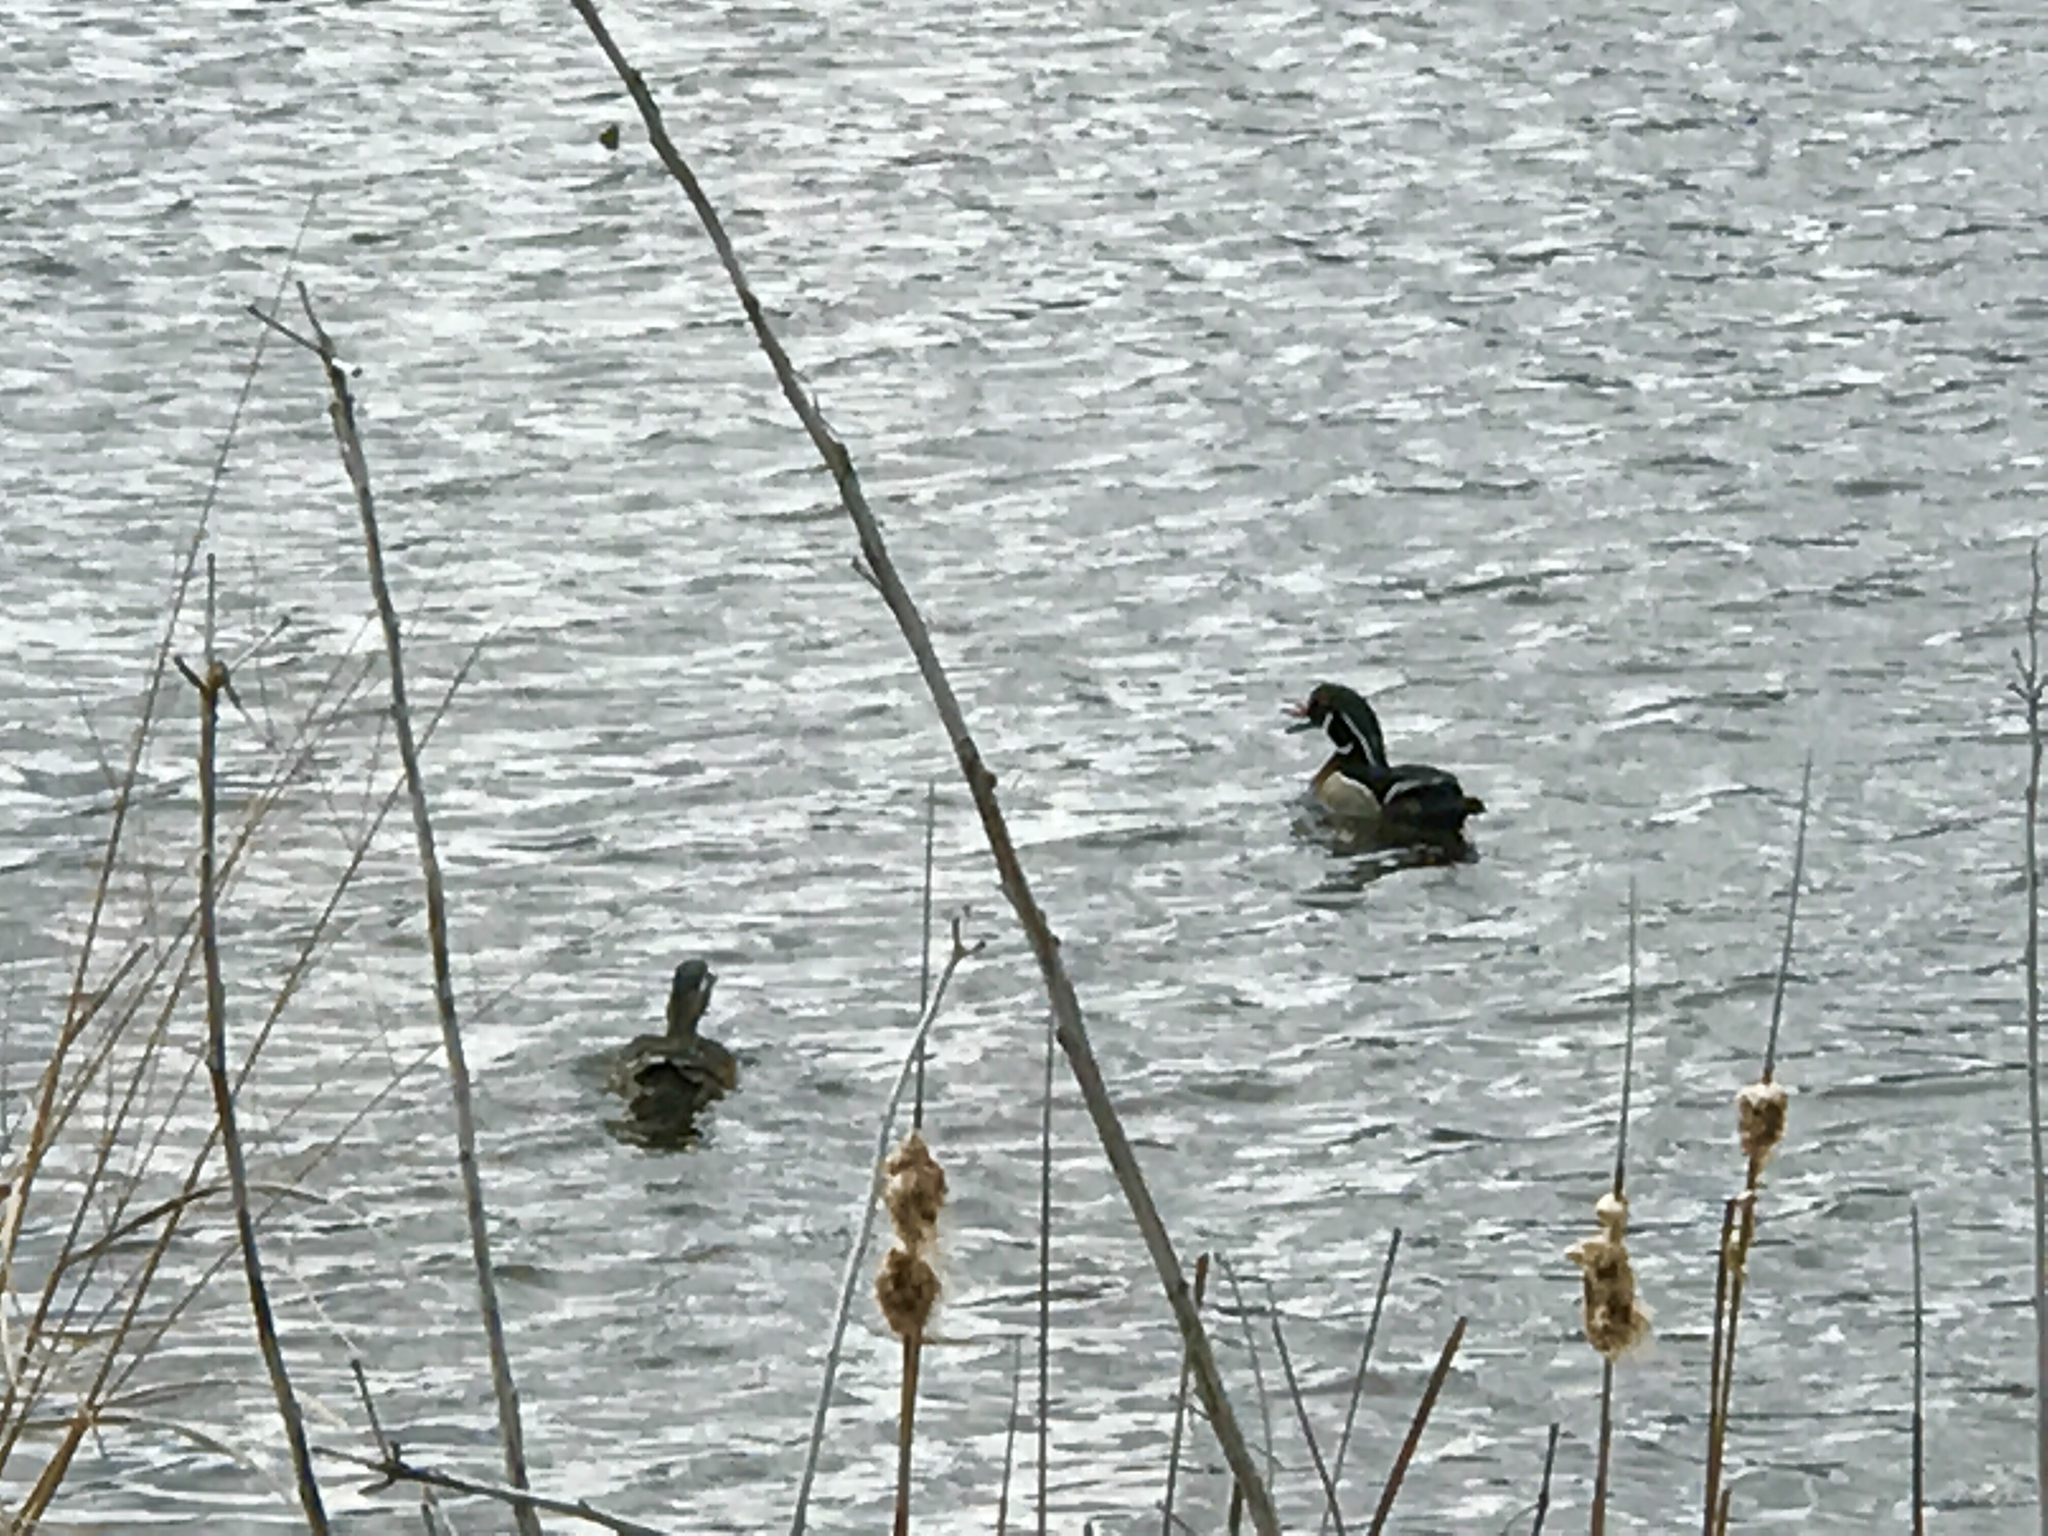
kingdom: Animalia
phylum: Chordata
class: Aves
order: Anseriformes
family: Anatidae
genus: Aix
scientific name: Aix sponsa
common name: Wood duck
